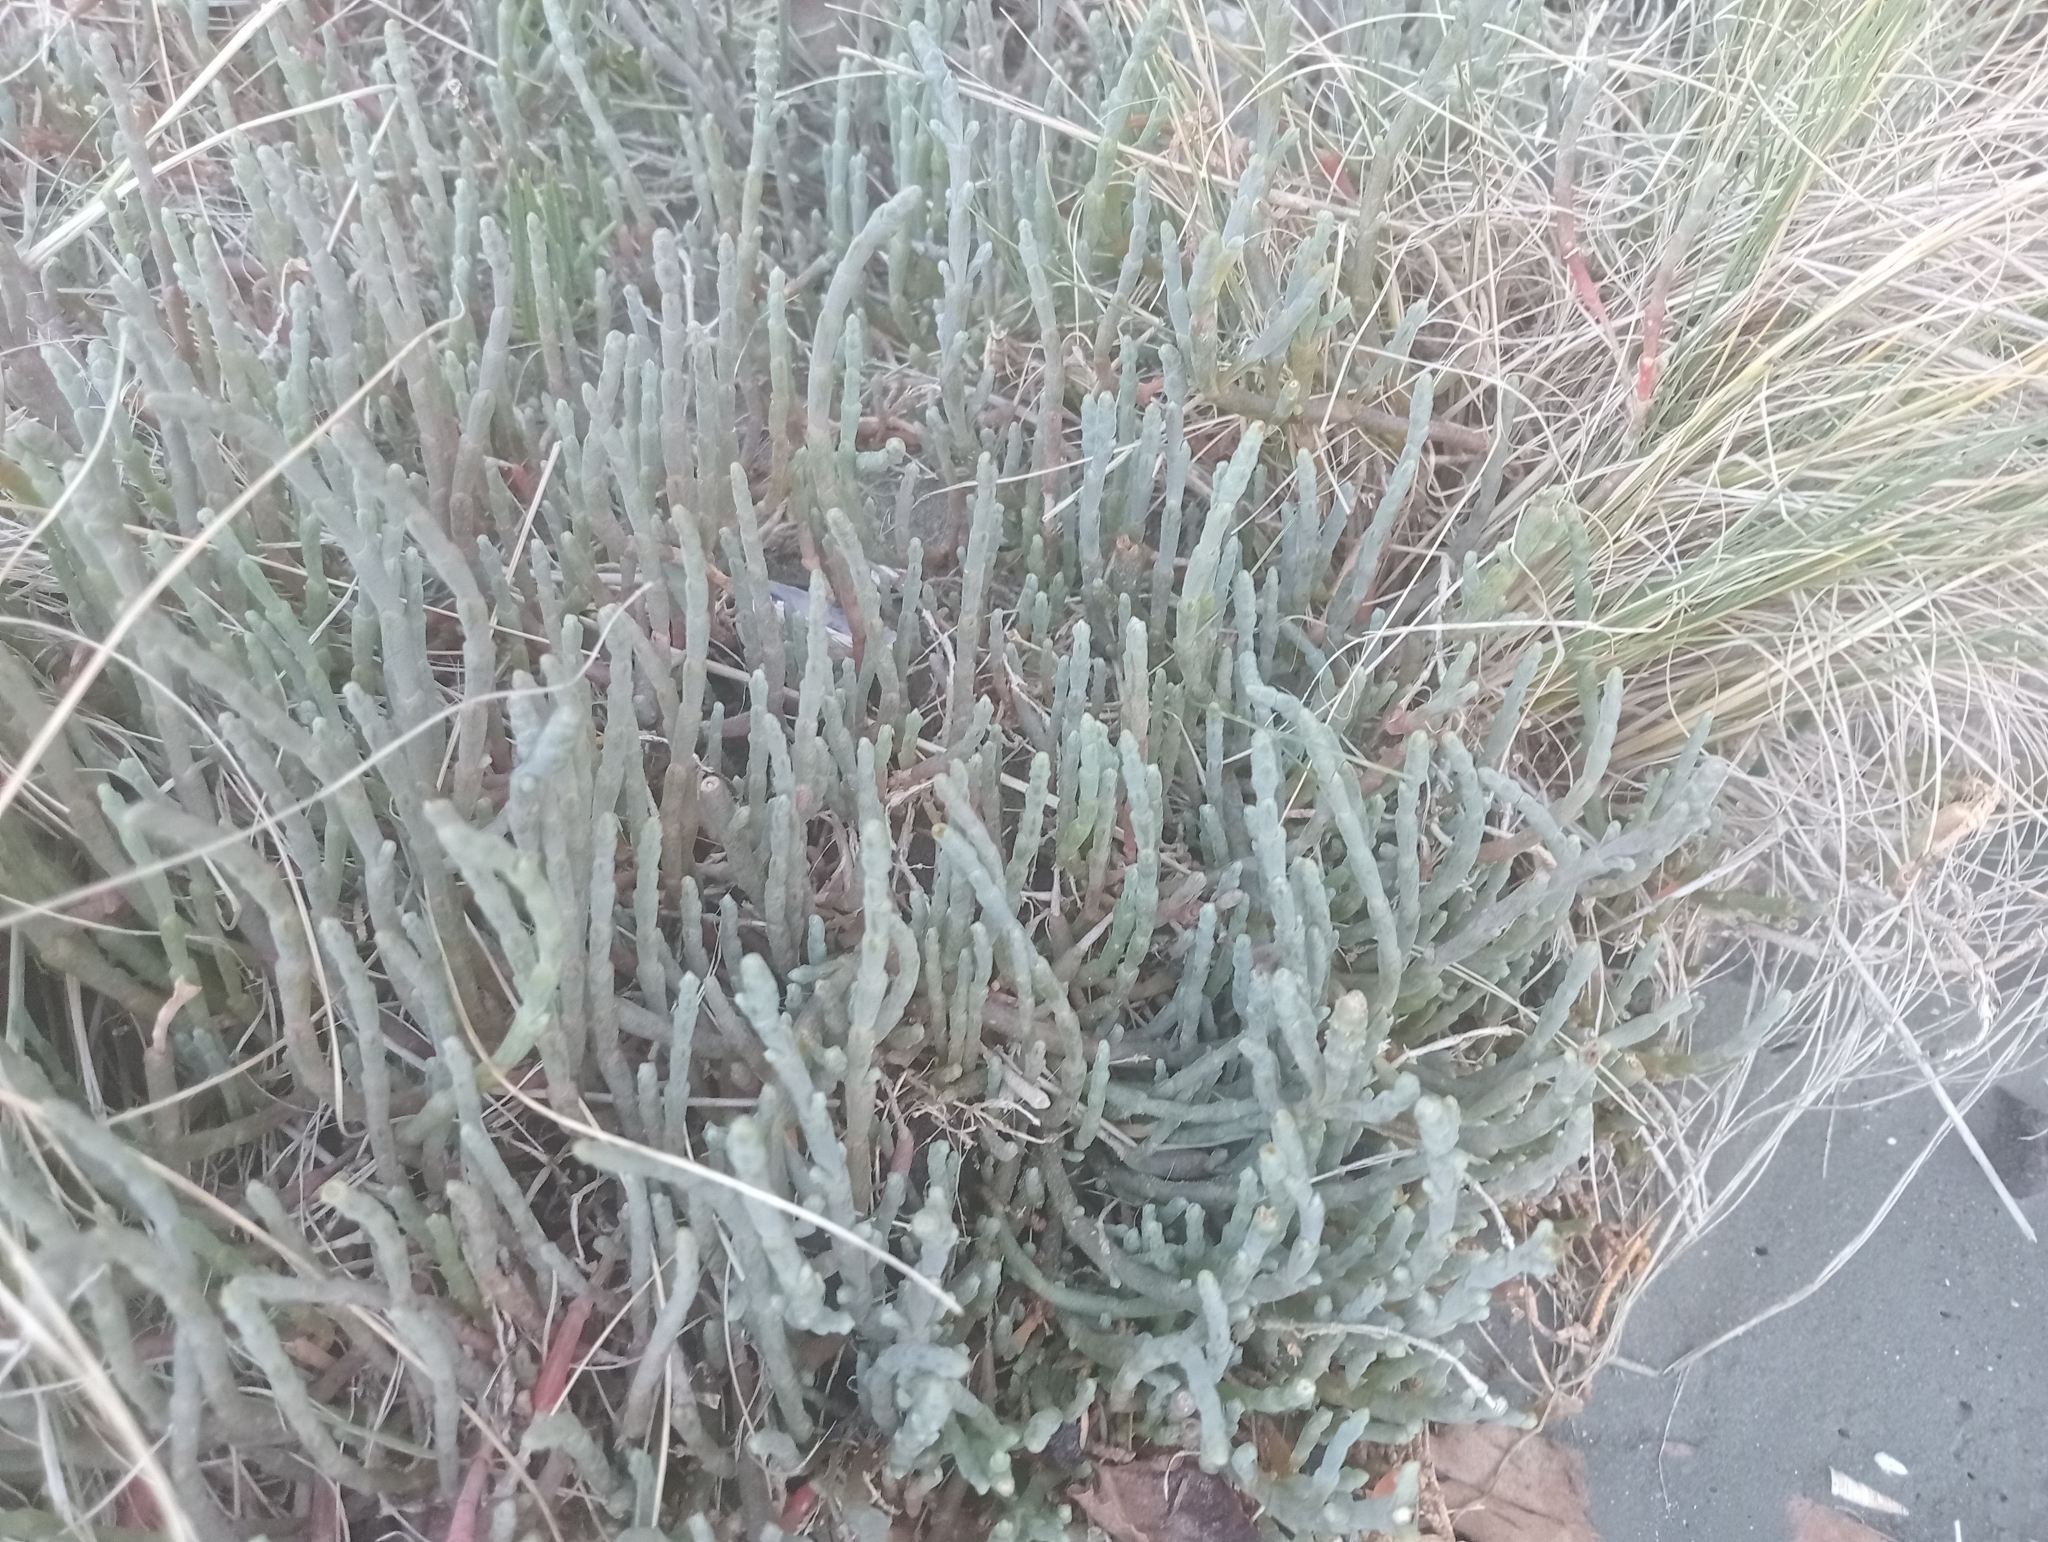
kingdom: Plantae
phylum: Tracheophyta
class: Magnoliopsida
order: Caryophyllales
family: Amaranthaceae
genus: Salicornia
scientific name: Salicornia quinqueflora
